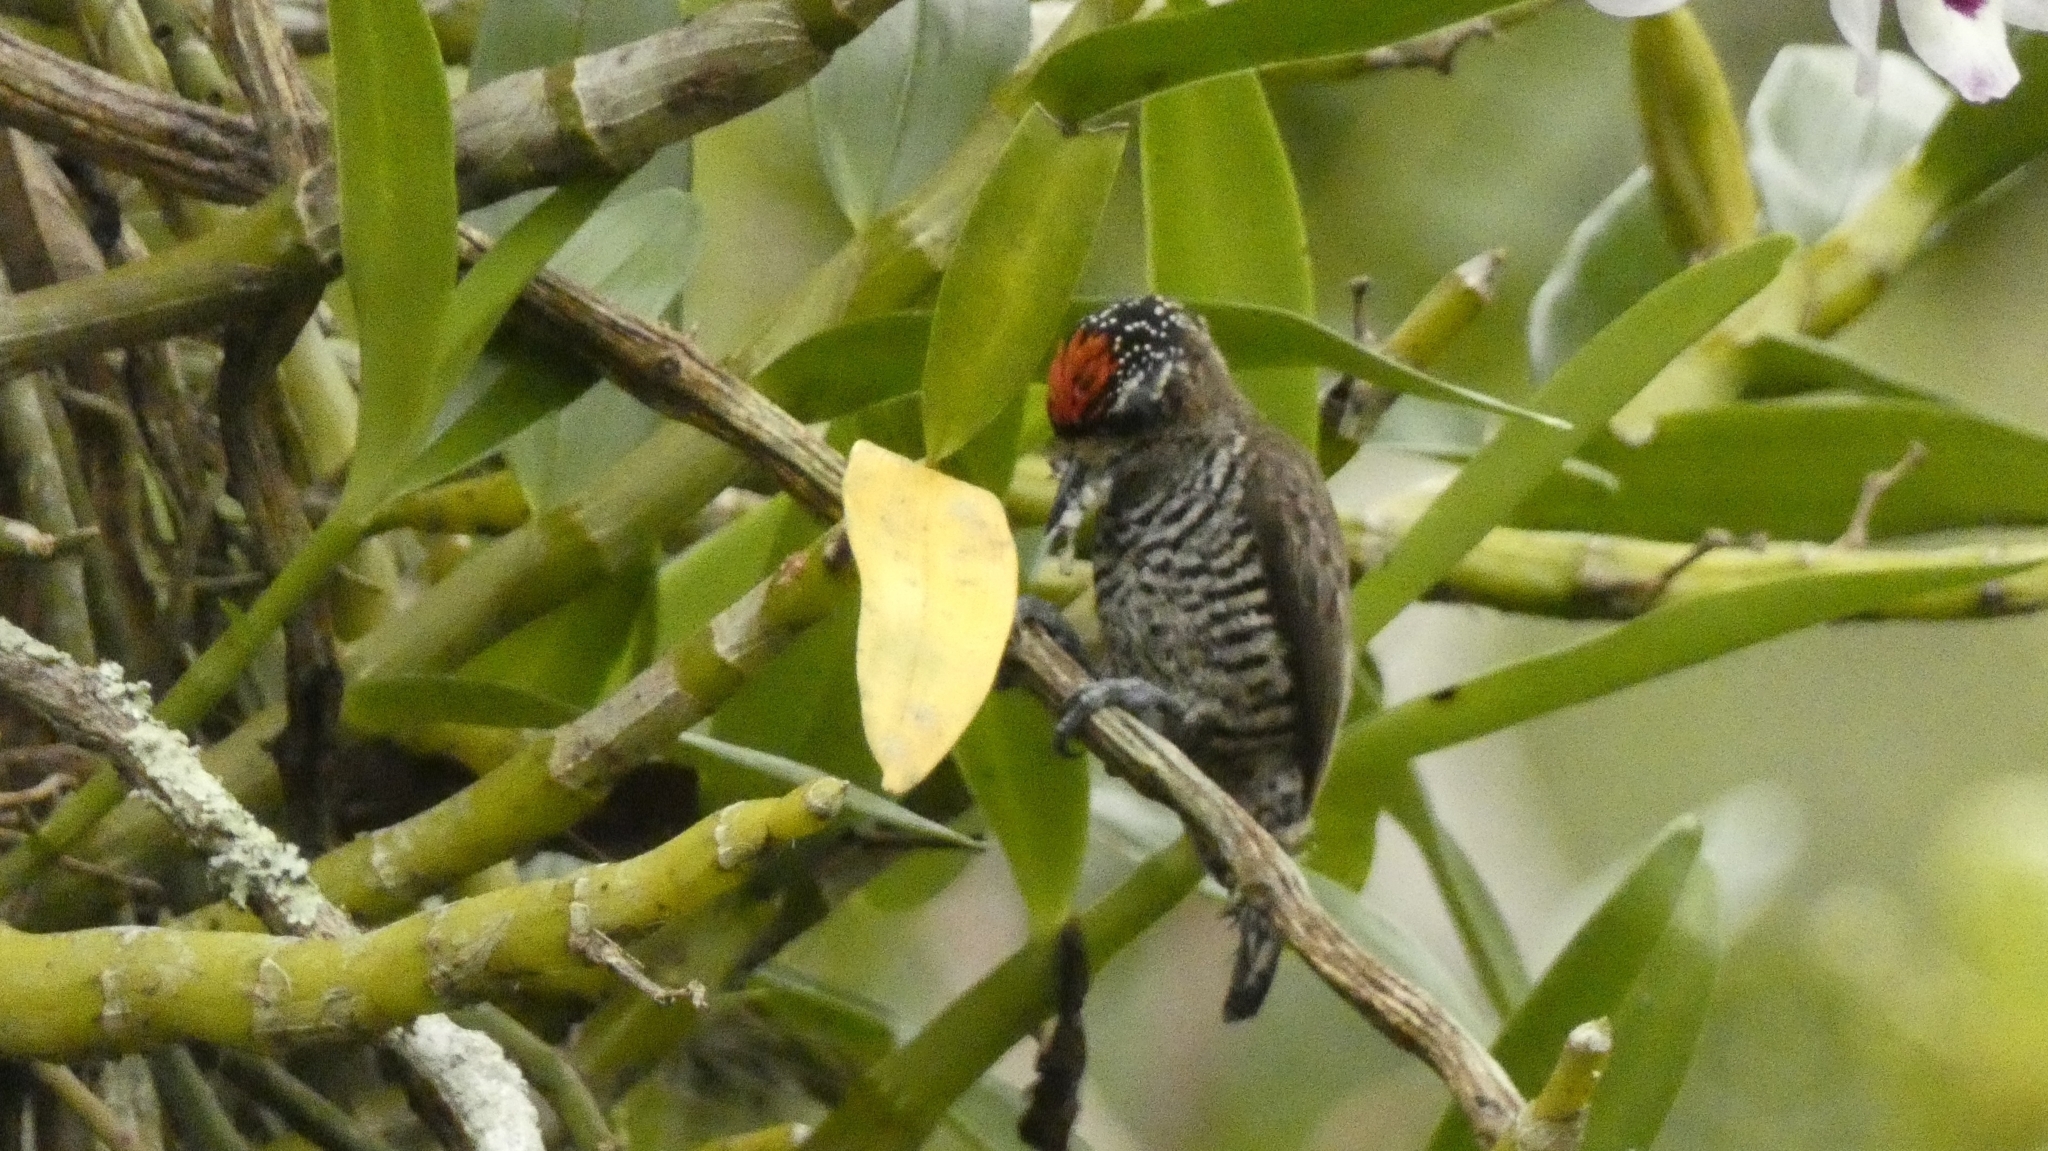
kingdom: Animalia
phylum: Chordata
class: Aves
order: Piciformes
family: Picidae
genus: Picumnus
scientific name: Picumnus cirratus
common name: White-barred piculet
